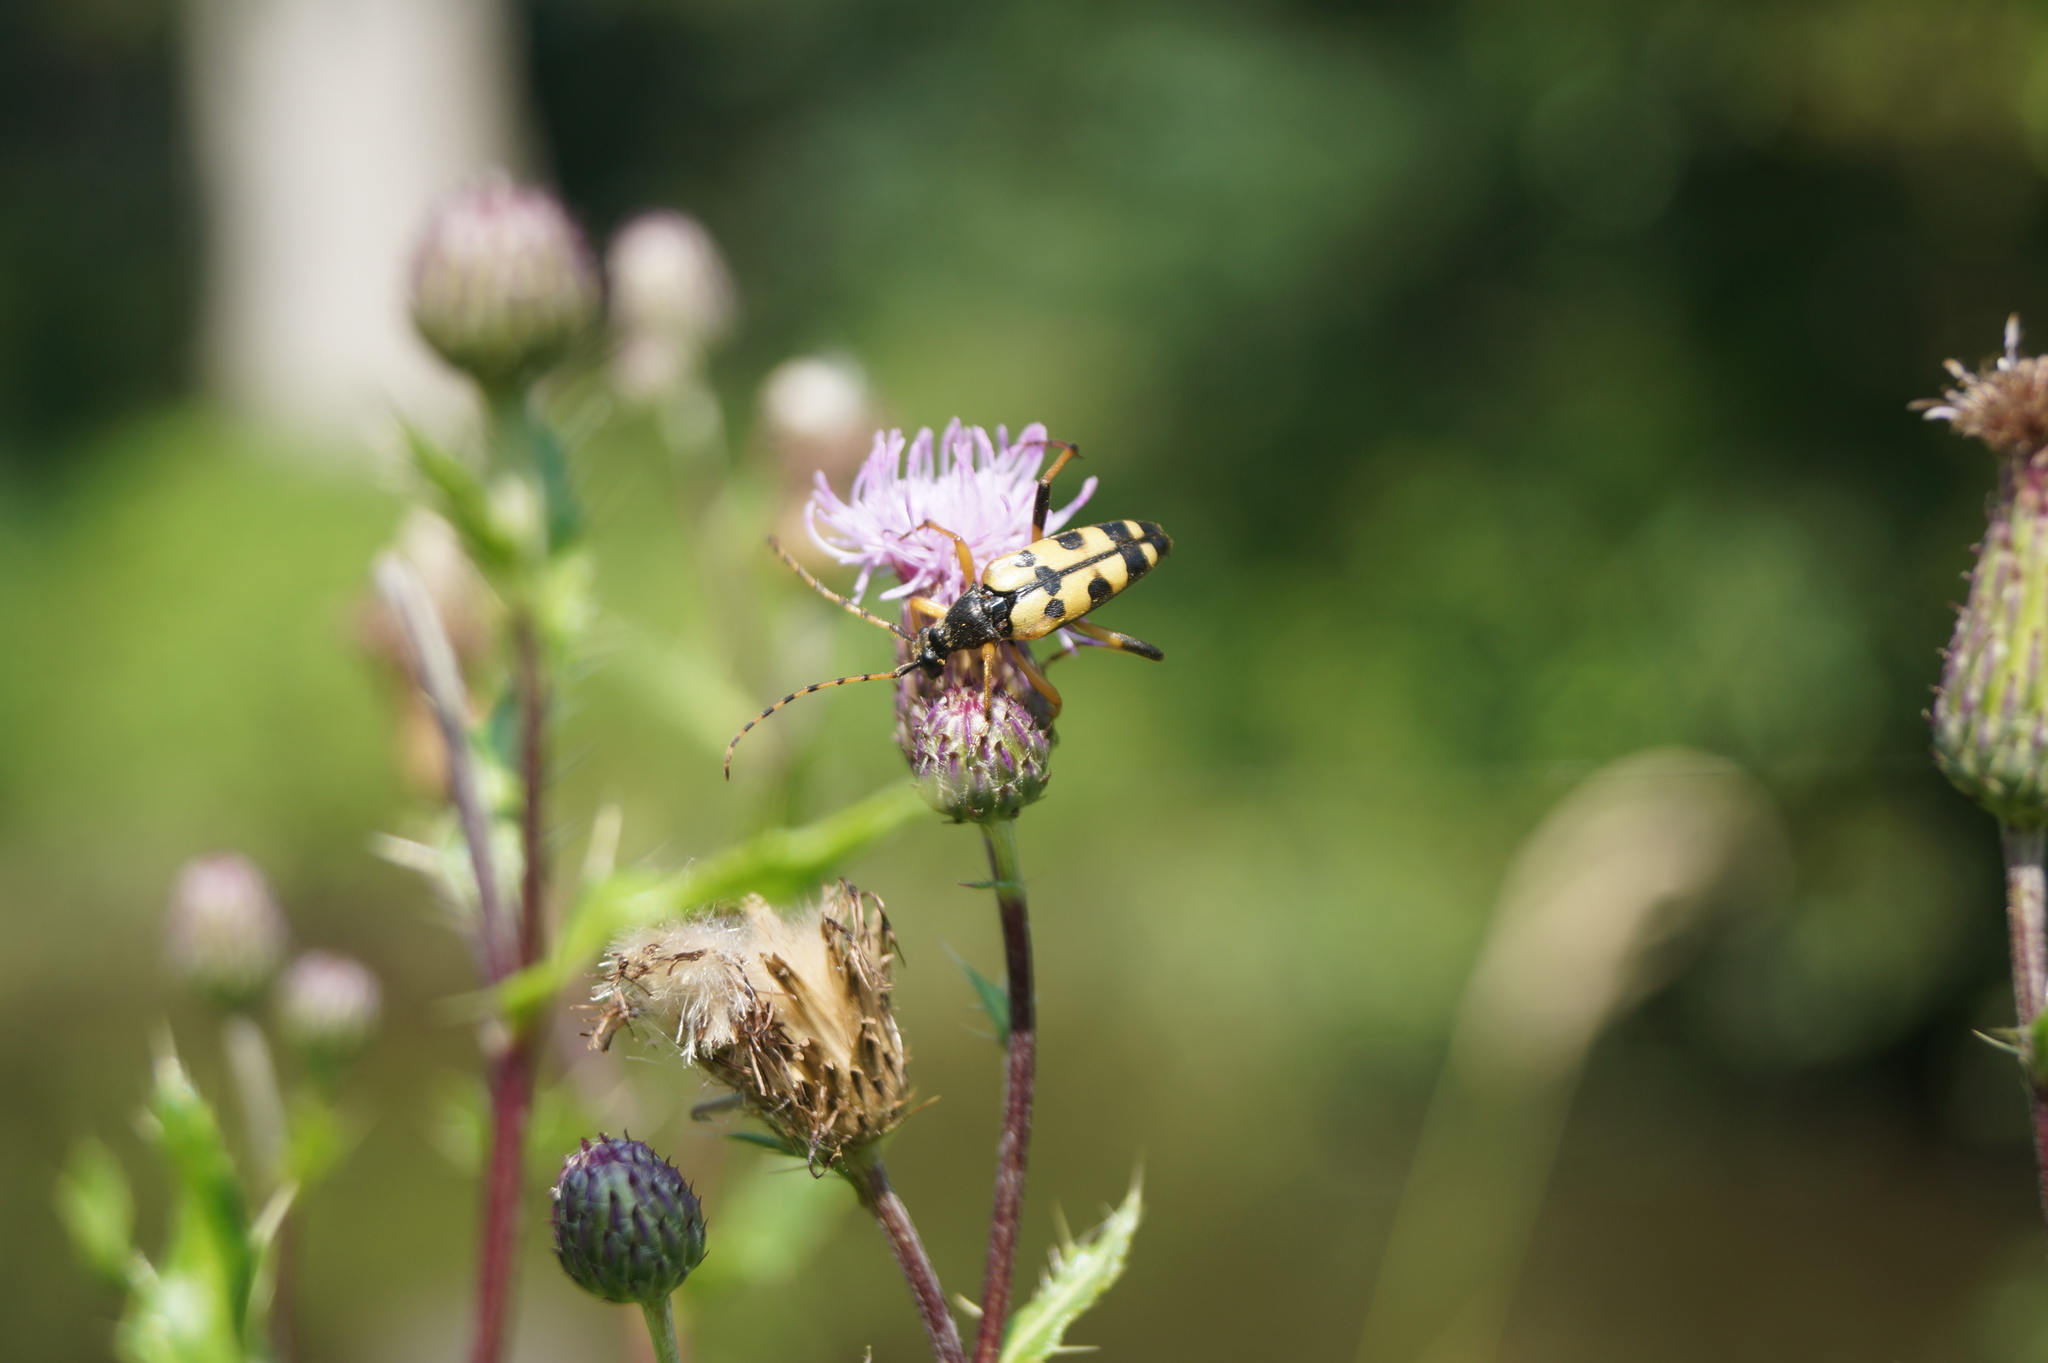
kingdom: Animalia
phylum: Arthropoda
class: Insecta
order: Coleoptera
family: Cerambycidae
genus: Rutpela
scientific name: Rutpela maculata
